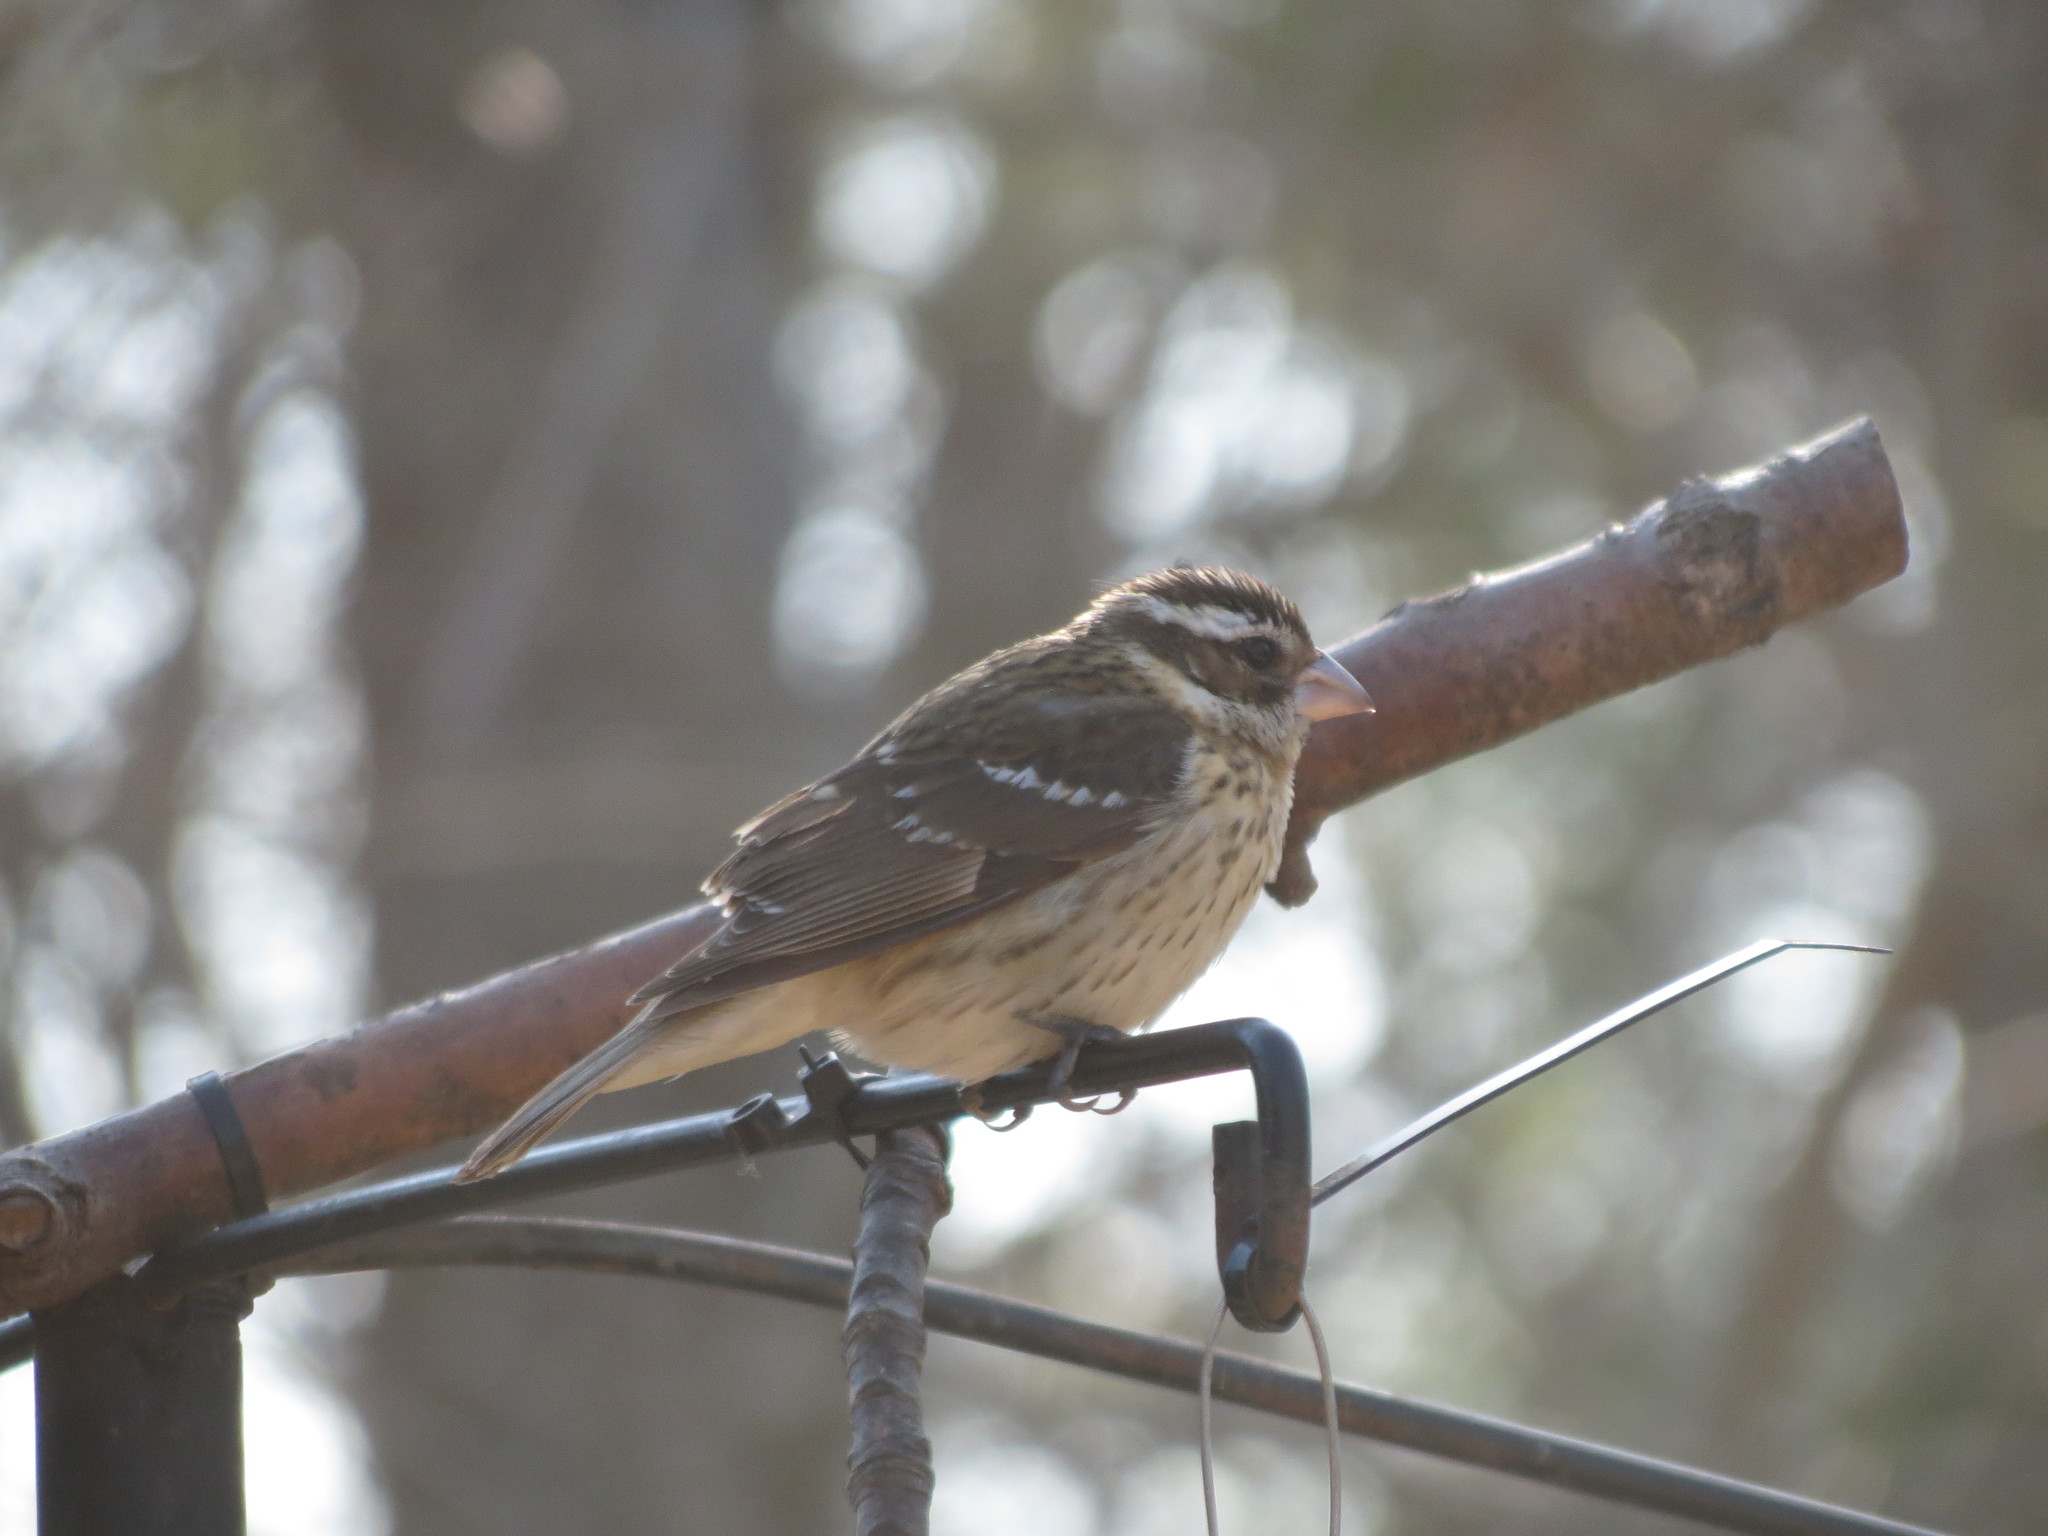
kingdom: Animalia
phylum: Chordata
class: Aves
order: Passeriformes
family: Cardinalidae
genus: Pheucticus
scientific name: Pheucticus ludovicianus
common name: Rose-breasted grosbeak
